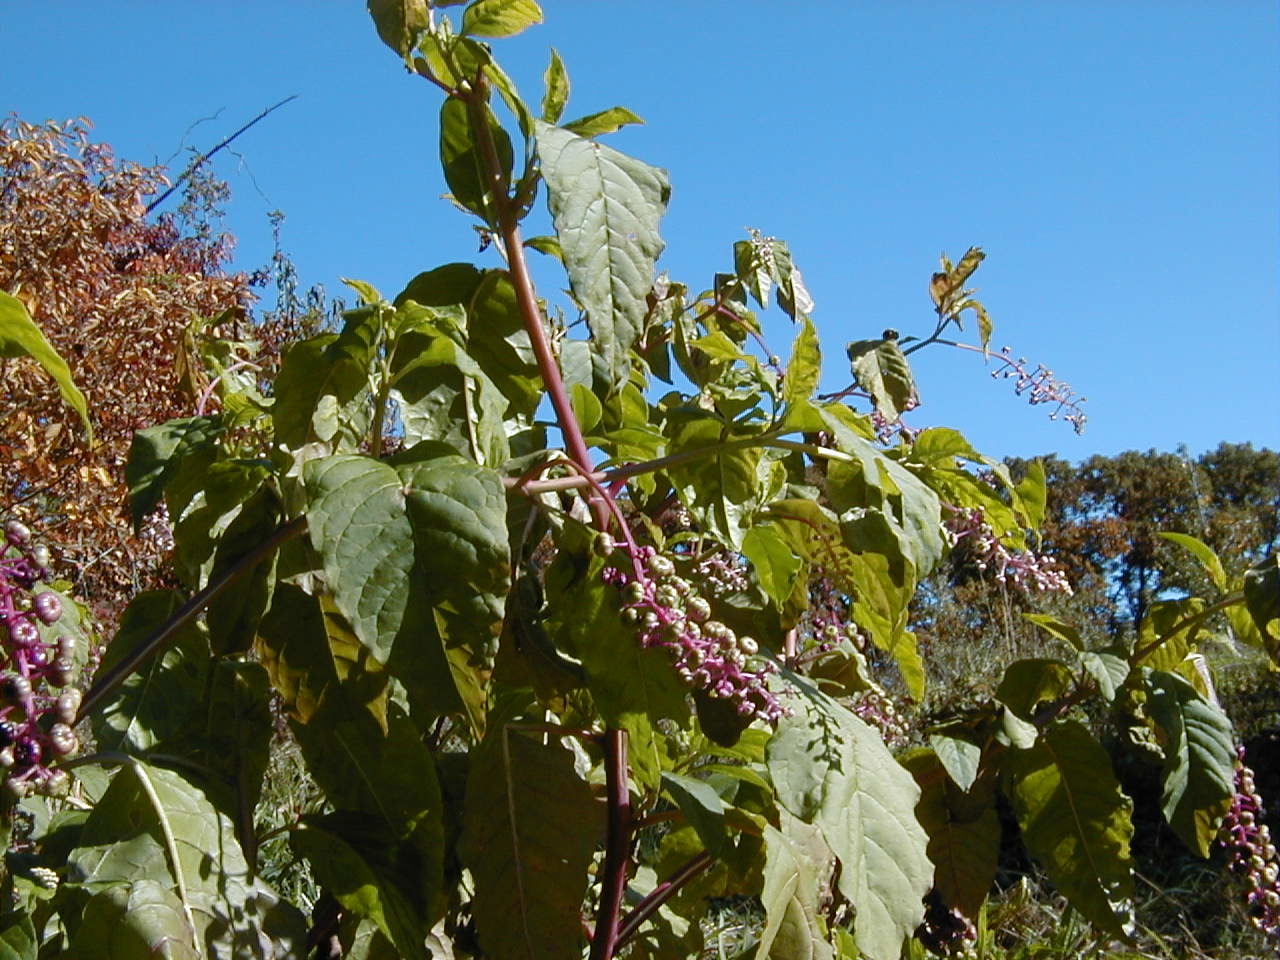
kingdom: Plantae
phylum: Tracheophyta
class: Magnoliopsida
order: Caryophyllales
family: Phytolaccaceae
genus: Phytolacca
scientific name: Phytolacca americana
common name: American pokeweed
